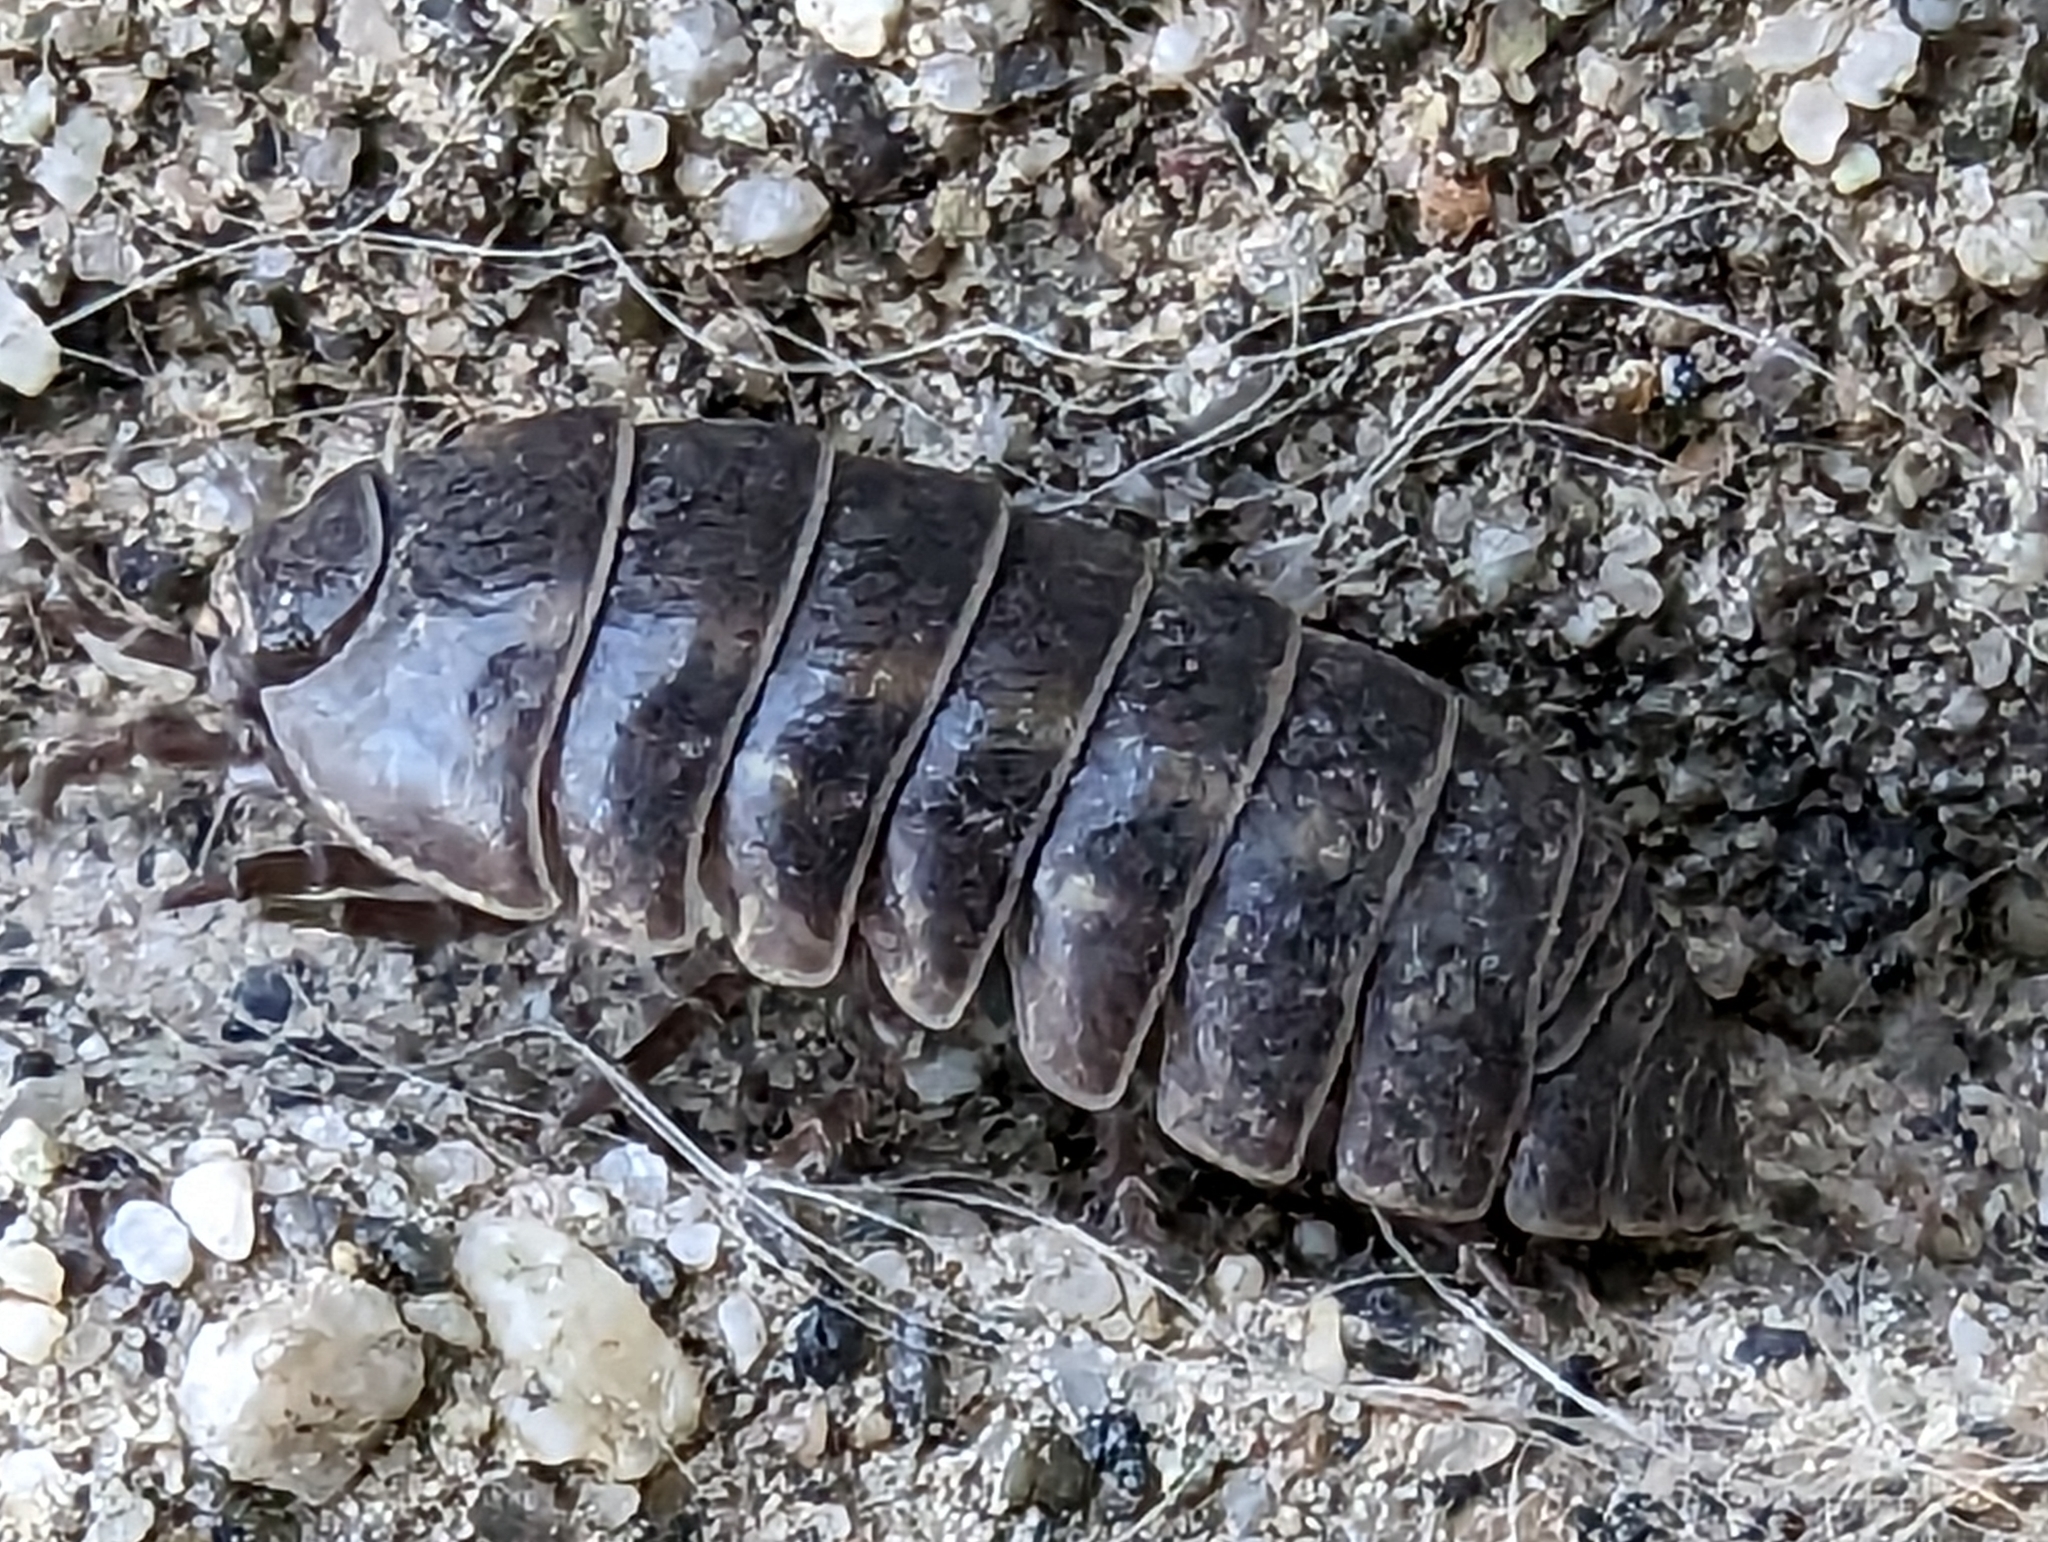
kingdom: Animalia
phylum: Arthropoda
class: Malacostraca
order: Isopoda
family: Armadillidiidae
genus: Armadillidium
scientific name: Armadillidium vulgare
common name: Common pill woodlouse
